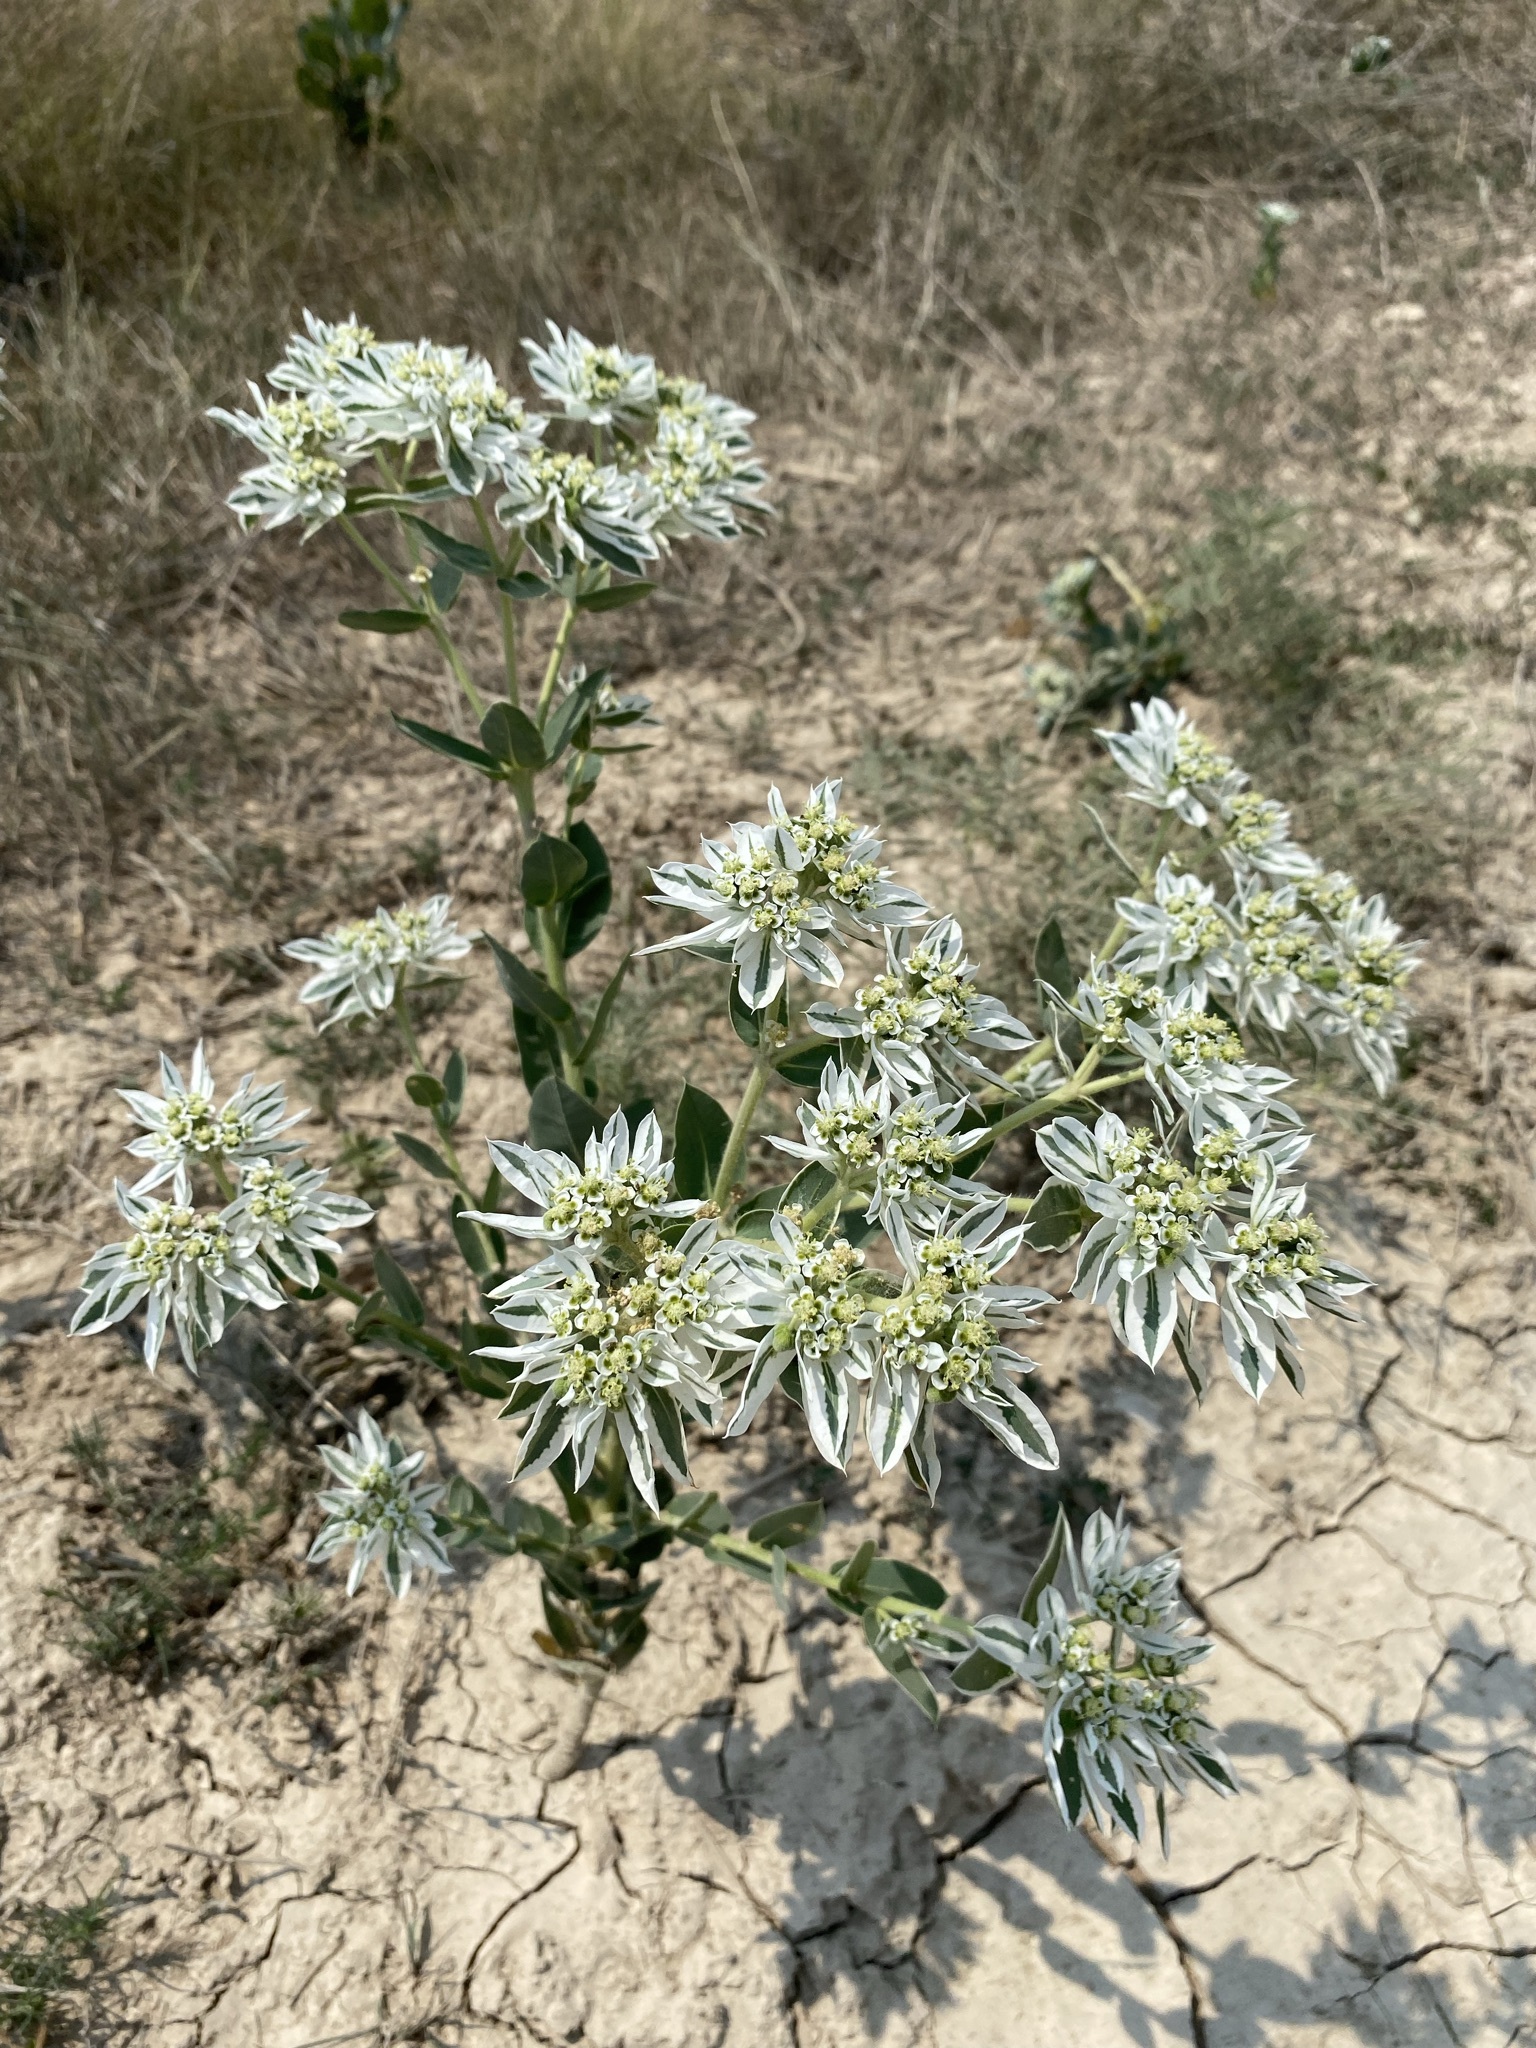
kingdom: Plantae
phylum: Tracheophyta
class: Magnoliopsida
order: Malpighiales
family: Euphorbiaceae
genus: Euphorbia
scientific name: Euphorbia marginata
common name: Ghostweed
